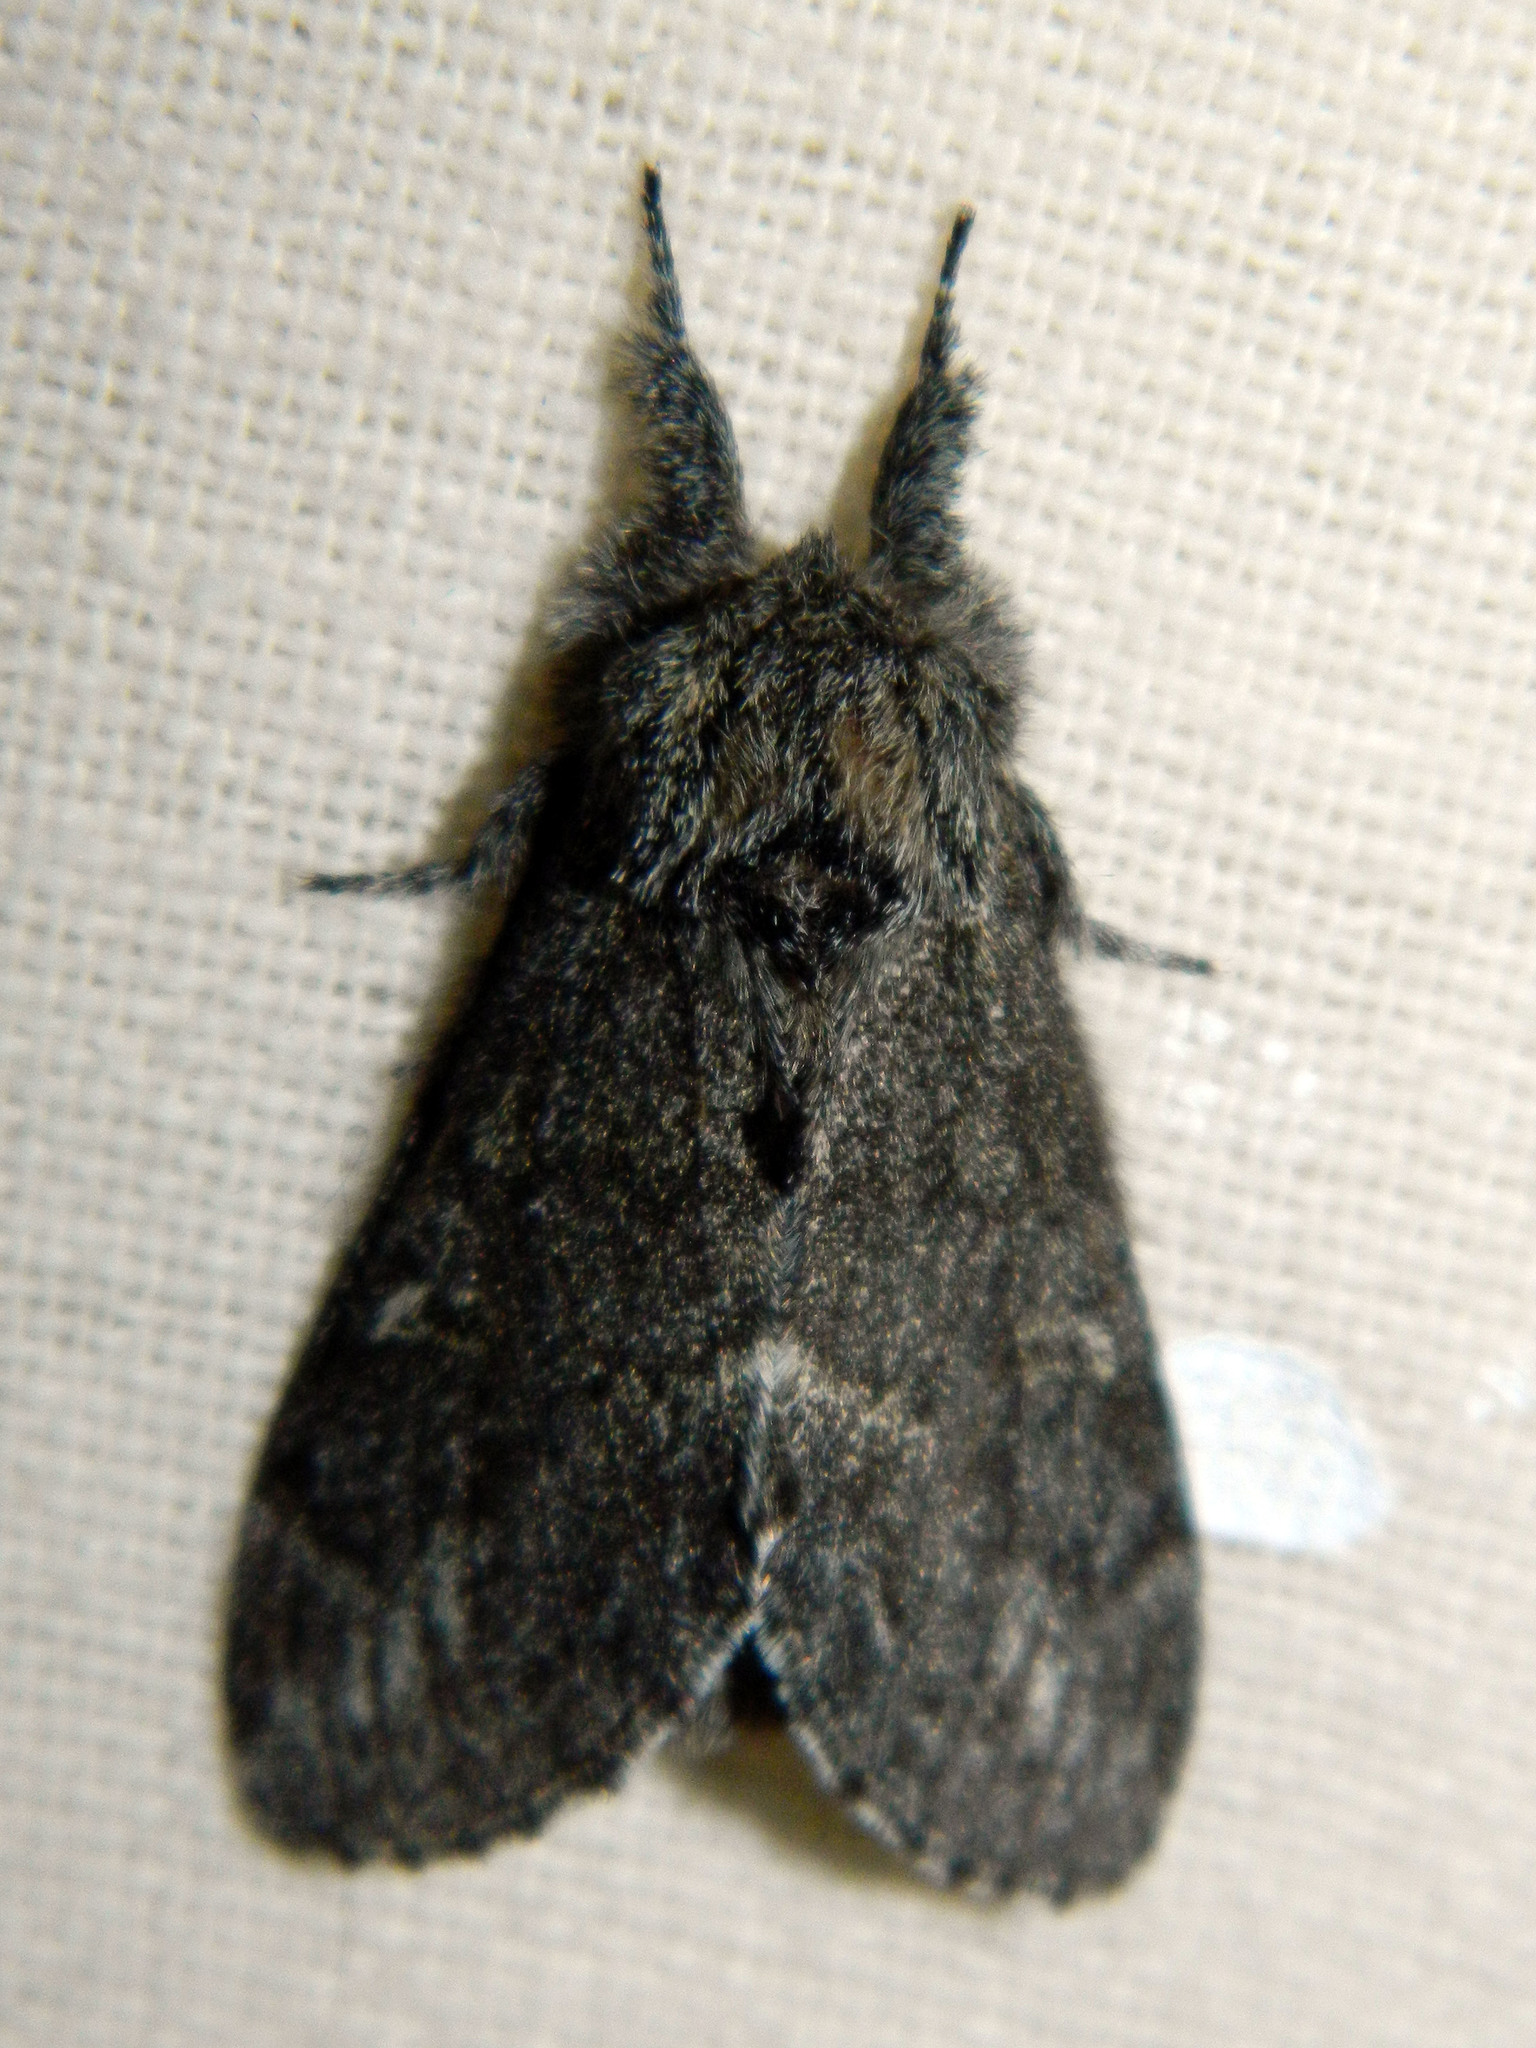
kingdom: Animalia
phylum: Arthropoda
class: Insecta
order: Lepidoptera
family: Notodontidae
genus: Notodonta
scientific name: Notodonta torva
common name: Large dark prominent
